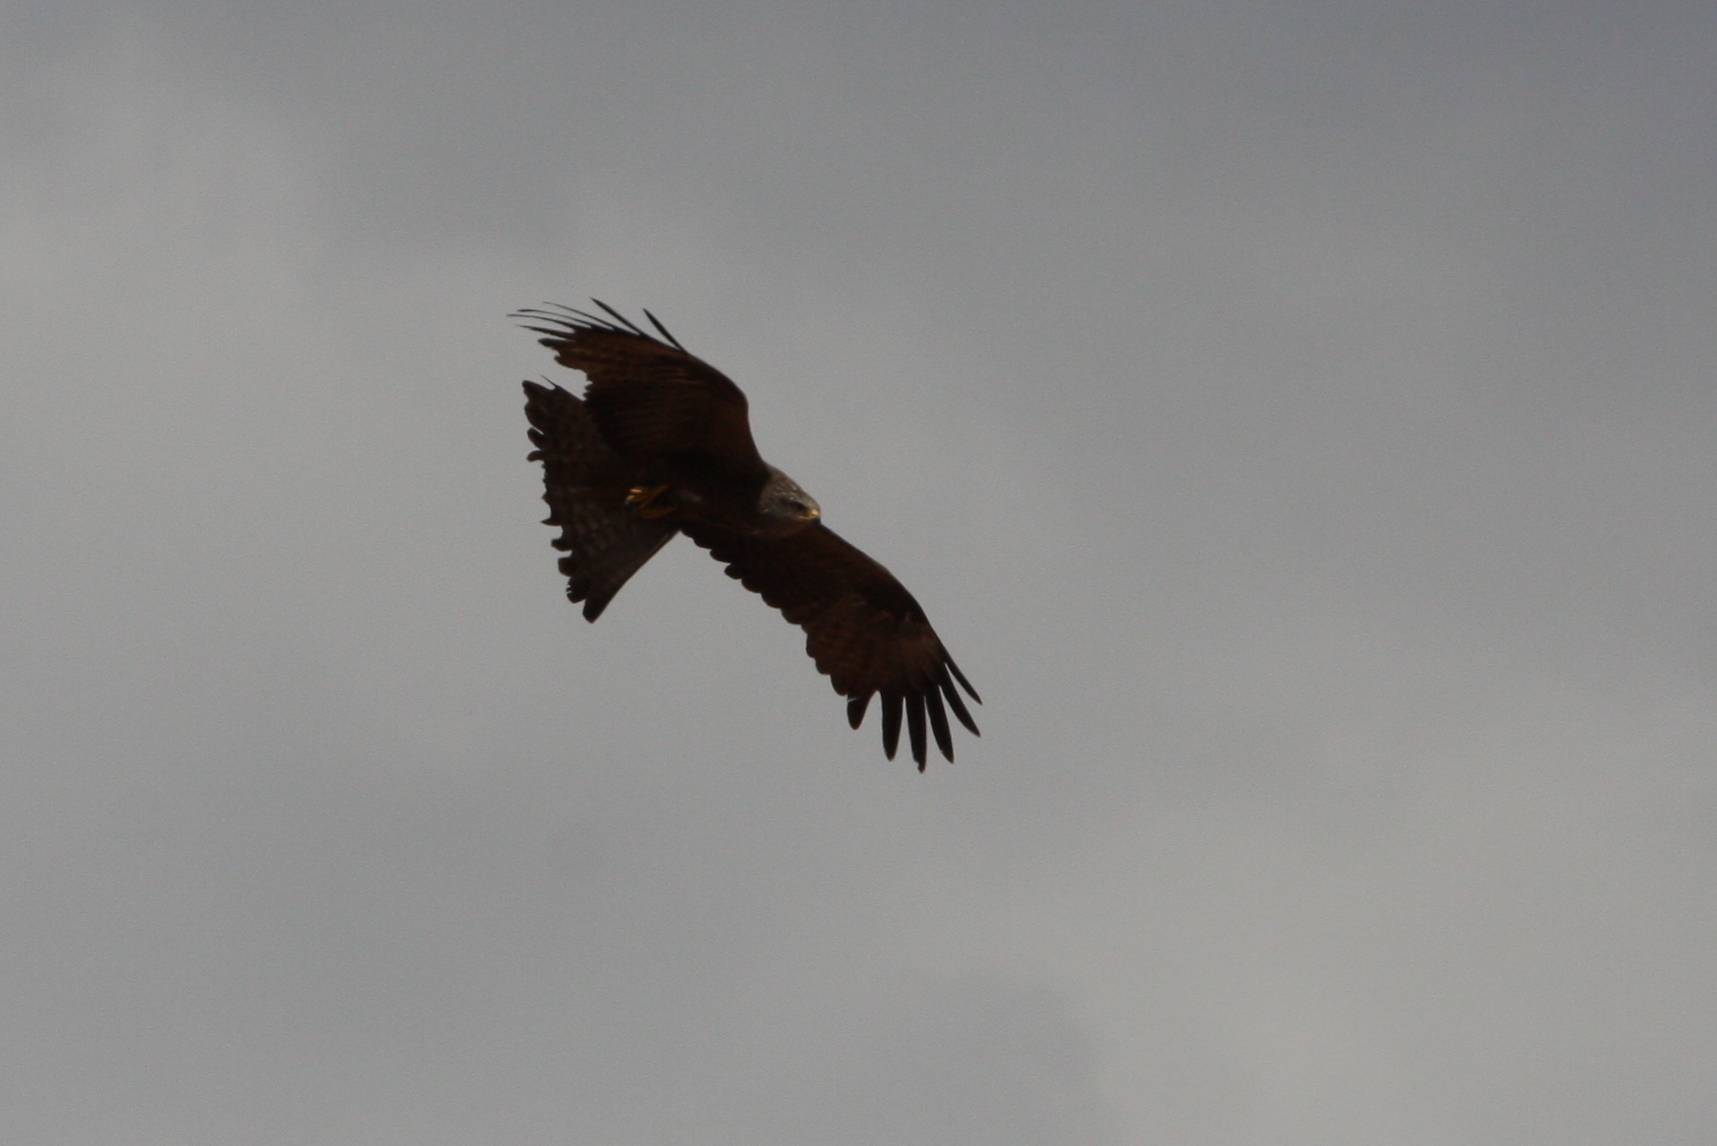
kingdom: Animalia
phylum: Chordata
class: Aves
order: Accipitriformes
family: Accipitridae
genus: Milvus
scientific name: Milvus migrans
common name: Black kite
